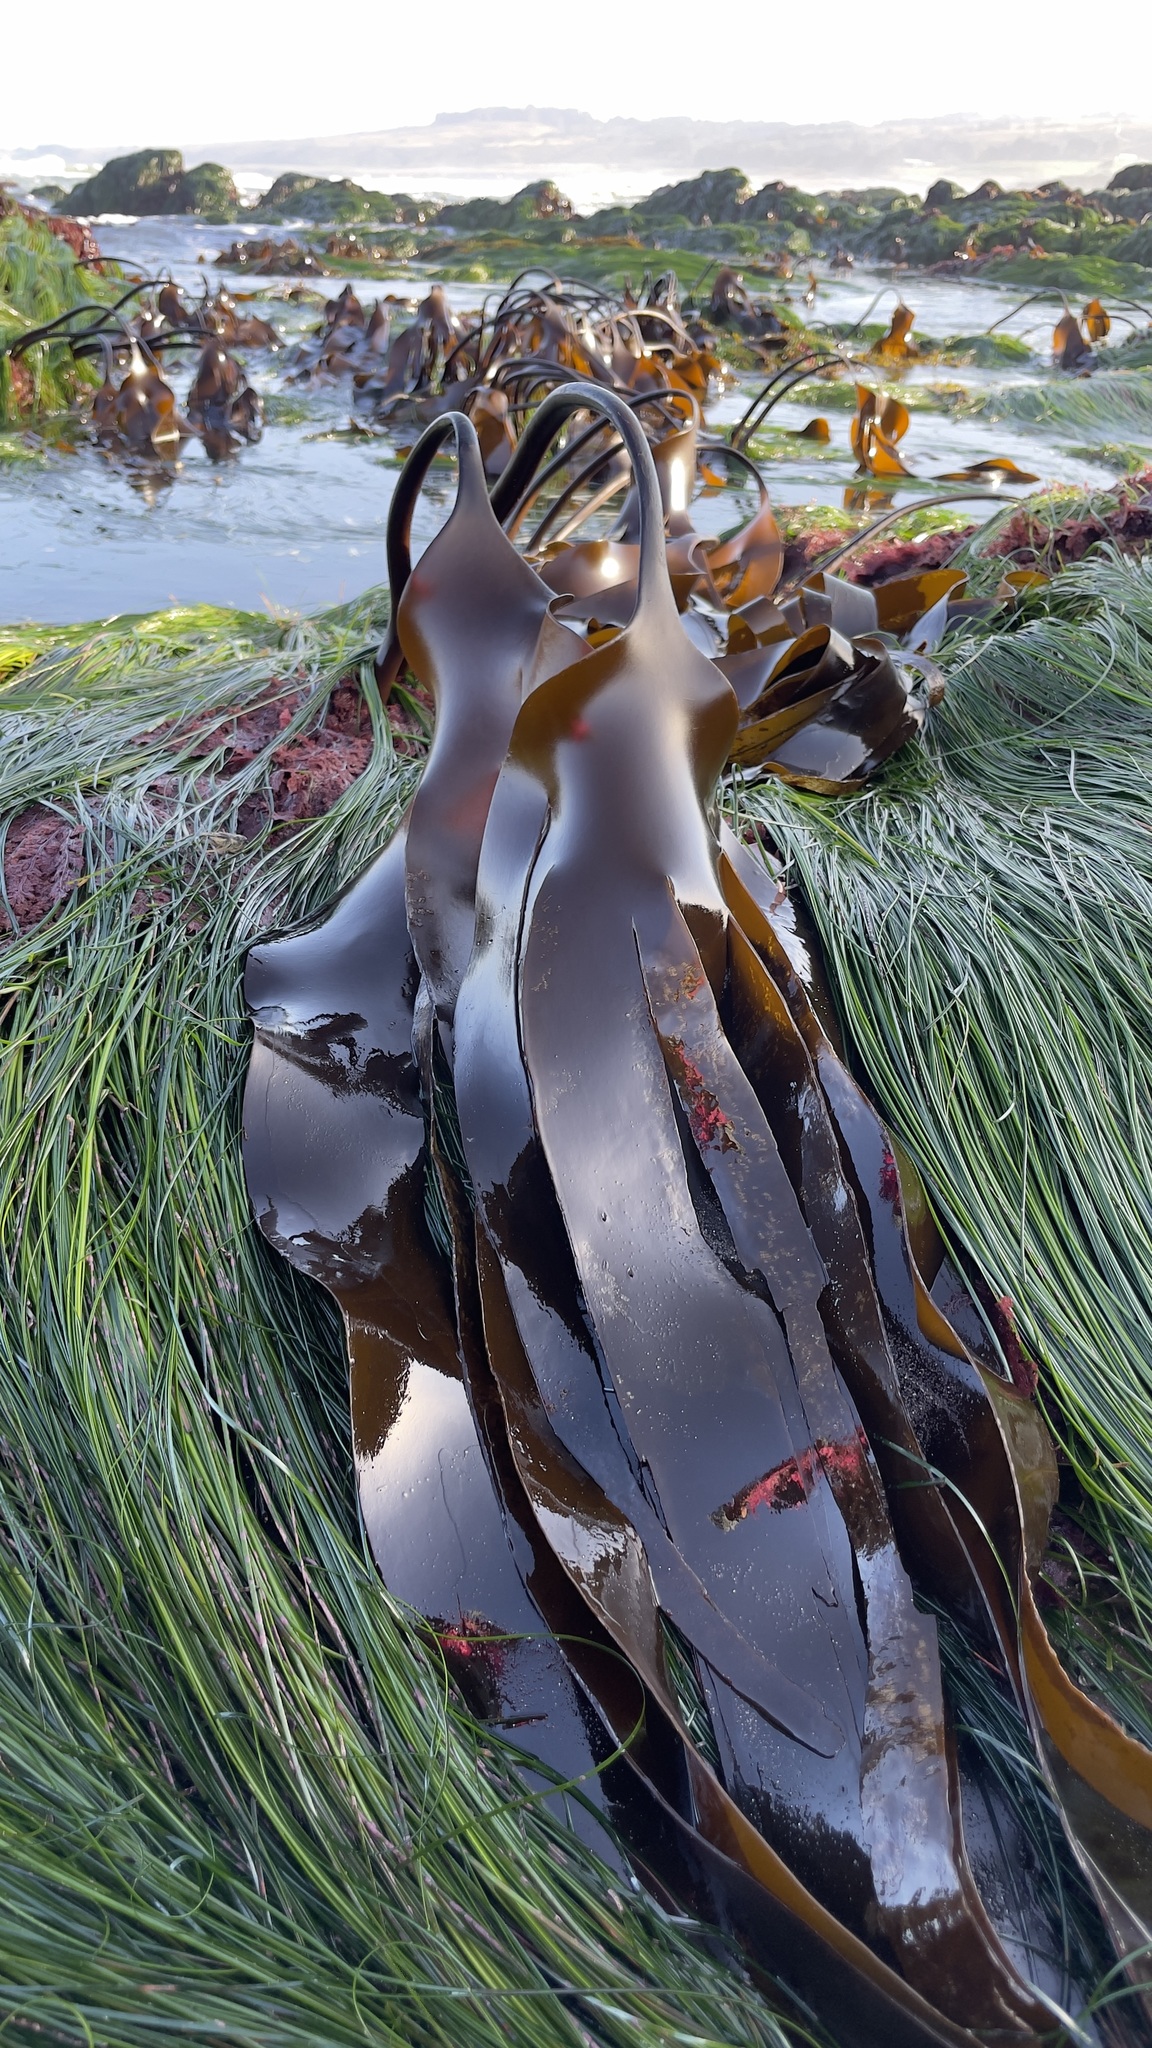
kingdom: Chromista
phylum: Ochrophyta
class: Phaeophyceae
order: Laminariales
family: Laminariaceae
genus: Laminaria
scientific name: Laminaria setchellii
